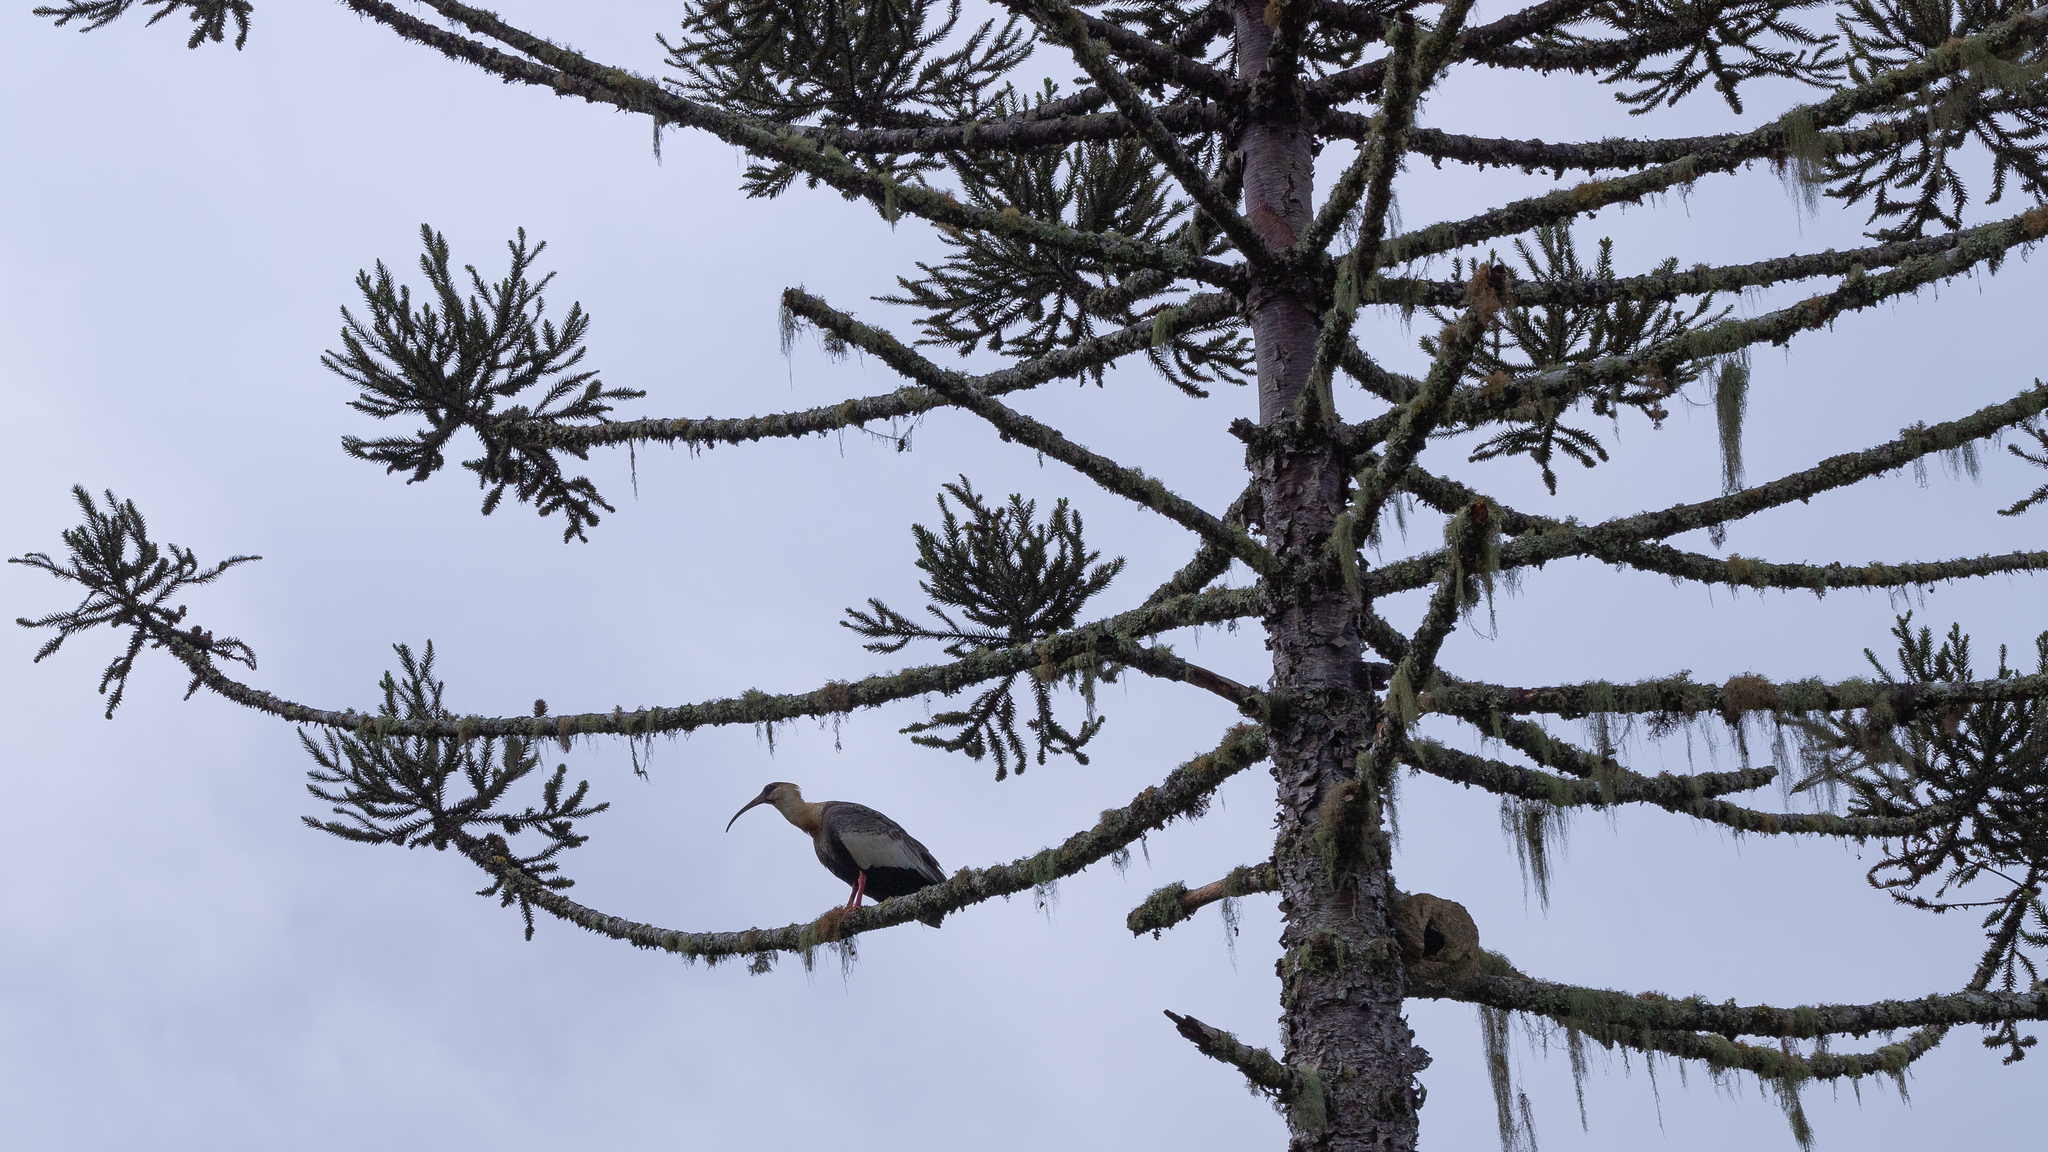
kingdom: Animalia
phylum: Chordata
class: Aves
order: Pelecaniformes
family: Threskiornithidae
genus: Theristicus
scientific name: Theristicus caudatus
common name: Buff-necked ibis
